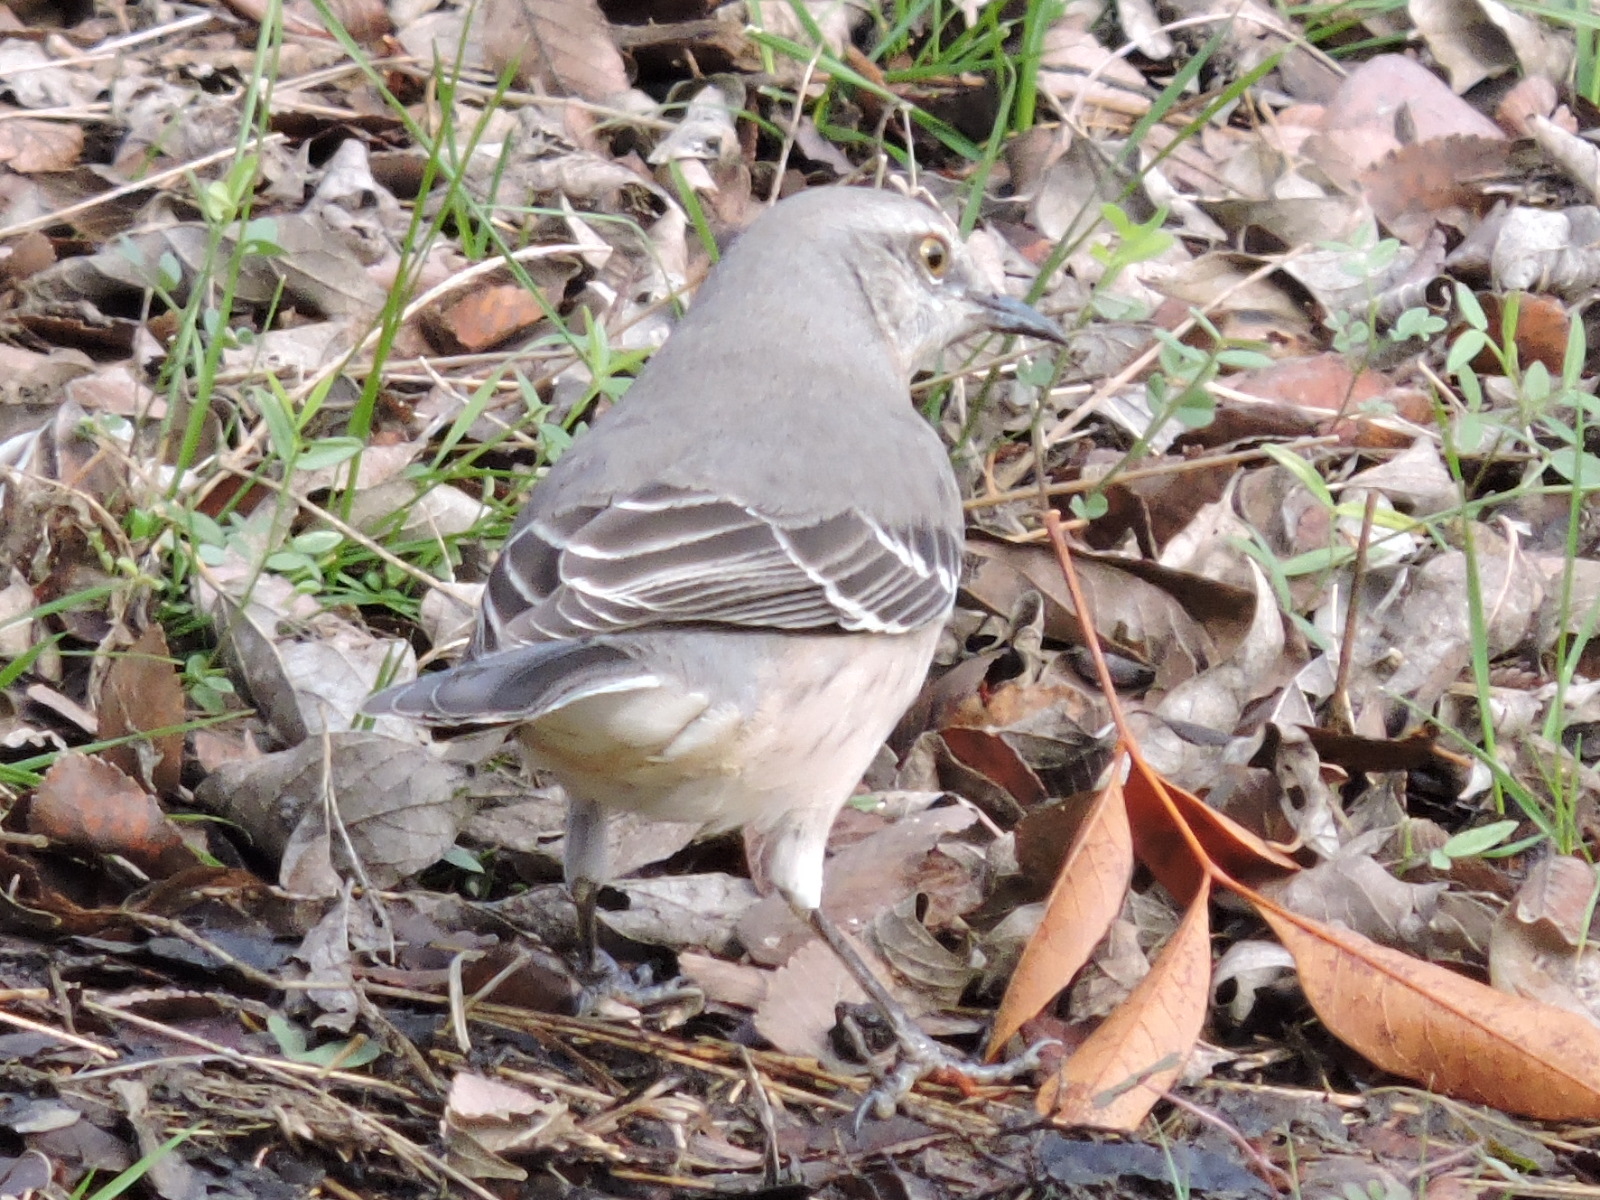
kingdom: Animalia
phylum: Chordata
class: Aves
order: Passeriformes
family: Mimidae
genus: Mimus
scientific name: Mimus polyglottos
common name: Northern mockingbird
